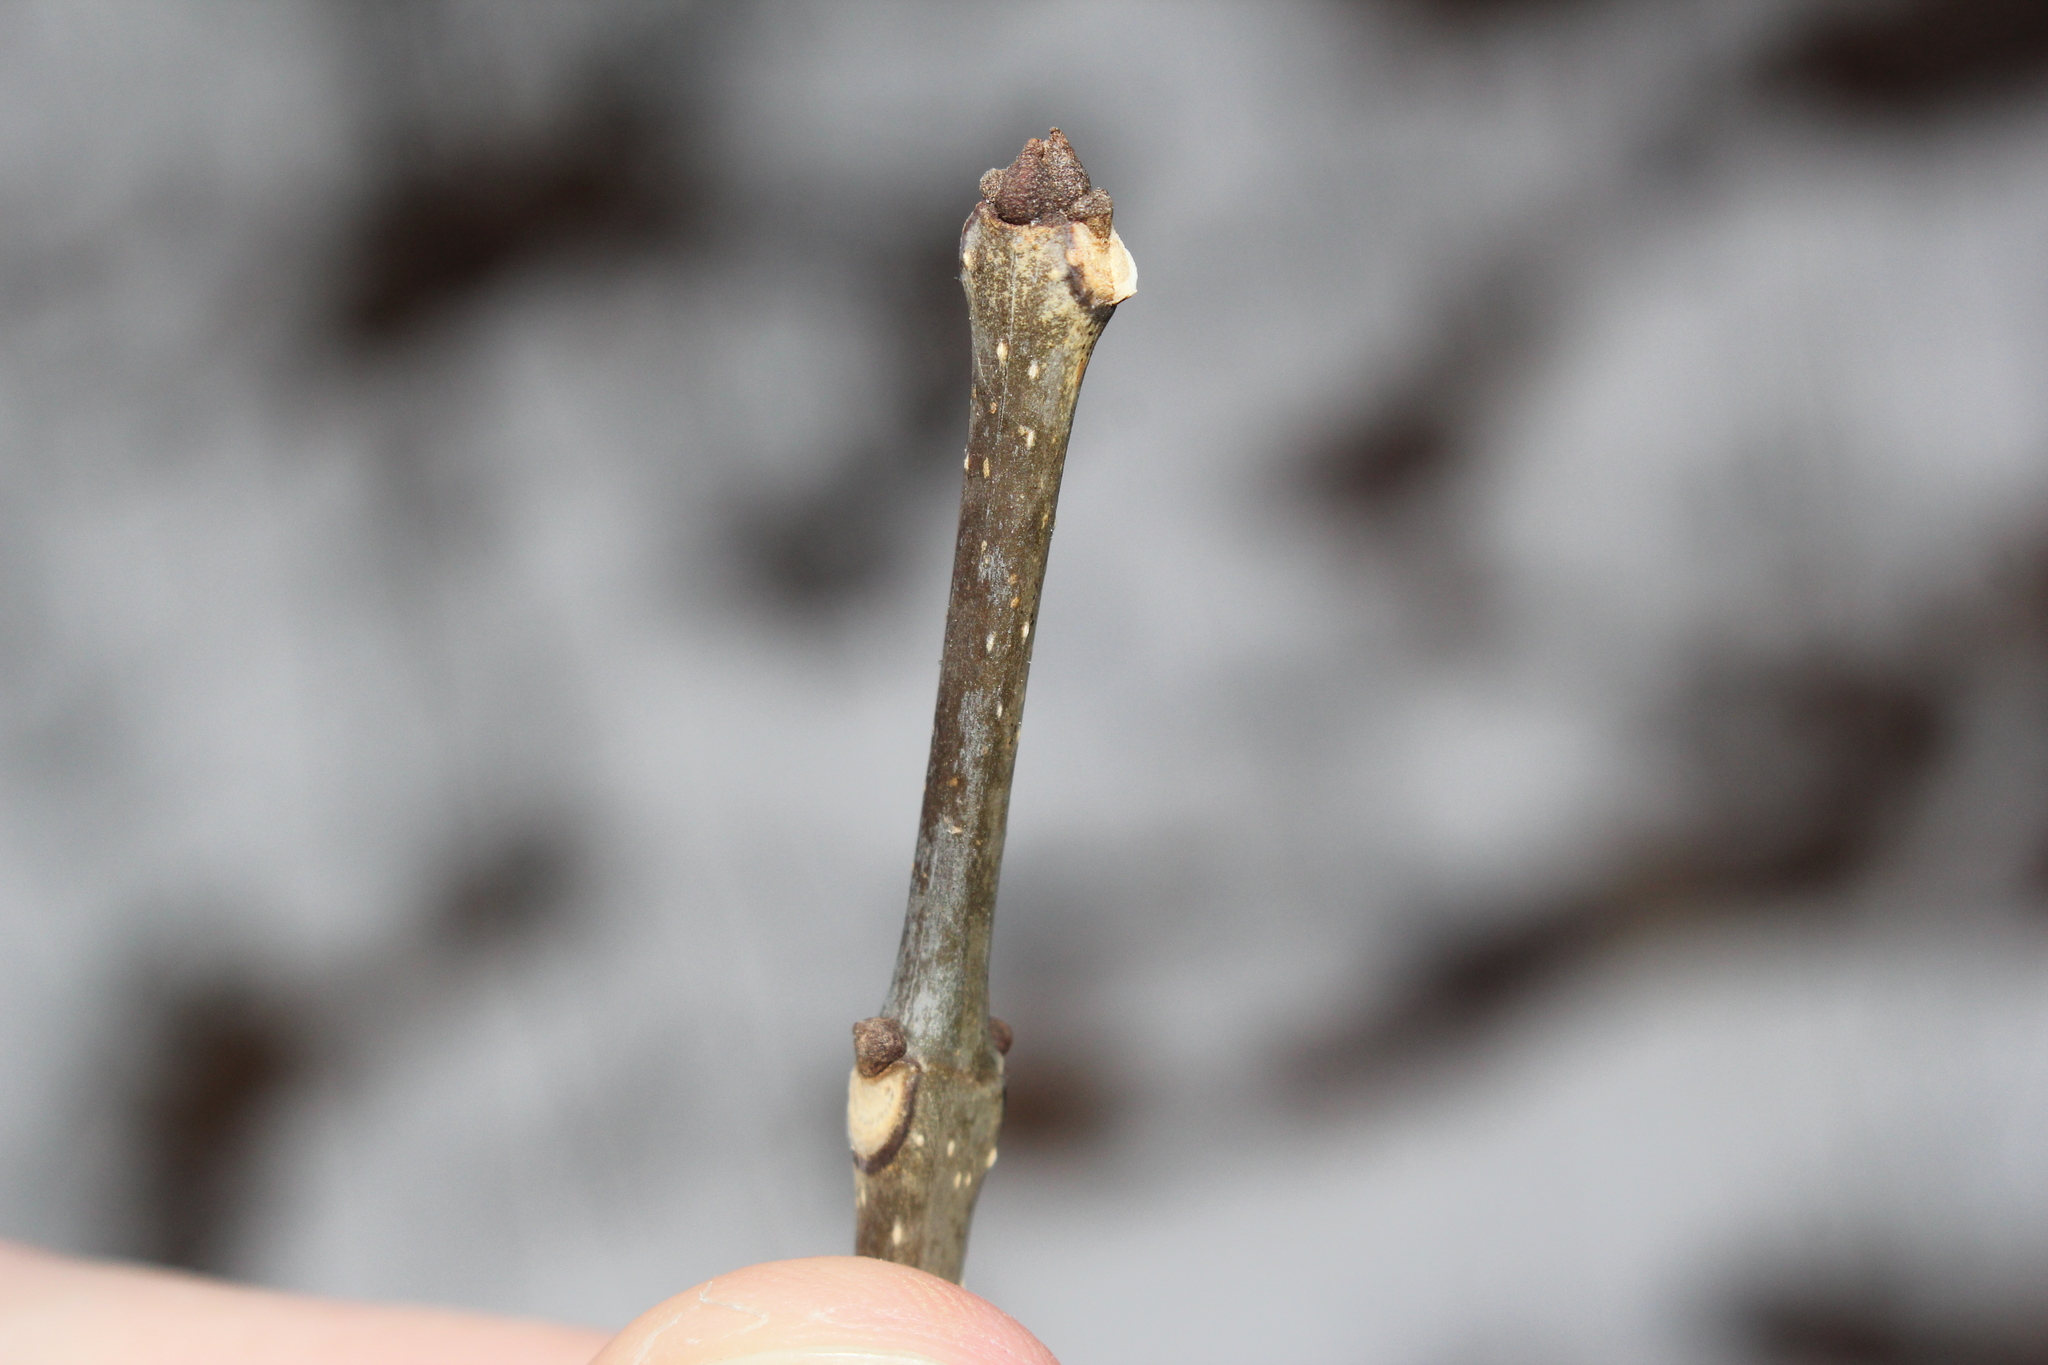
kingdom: Plantae
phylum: Tracheophyta
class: Magnoliopsida
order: Lamiales
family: Oleaceae
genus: Fraxinus
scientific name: Fraxinus americana
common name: White ash
